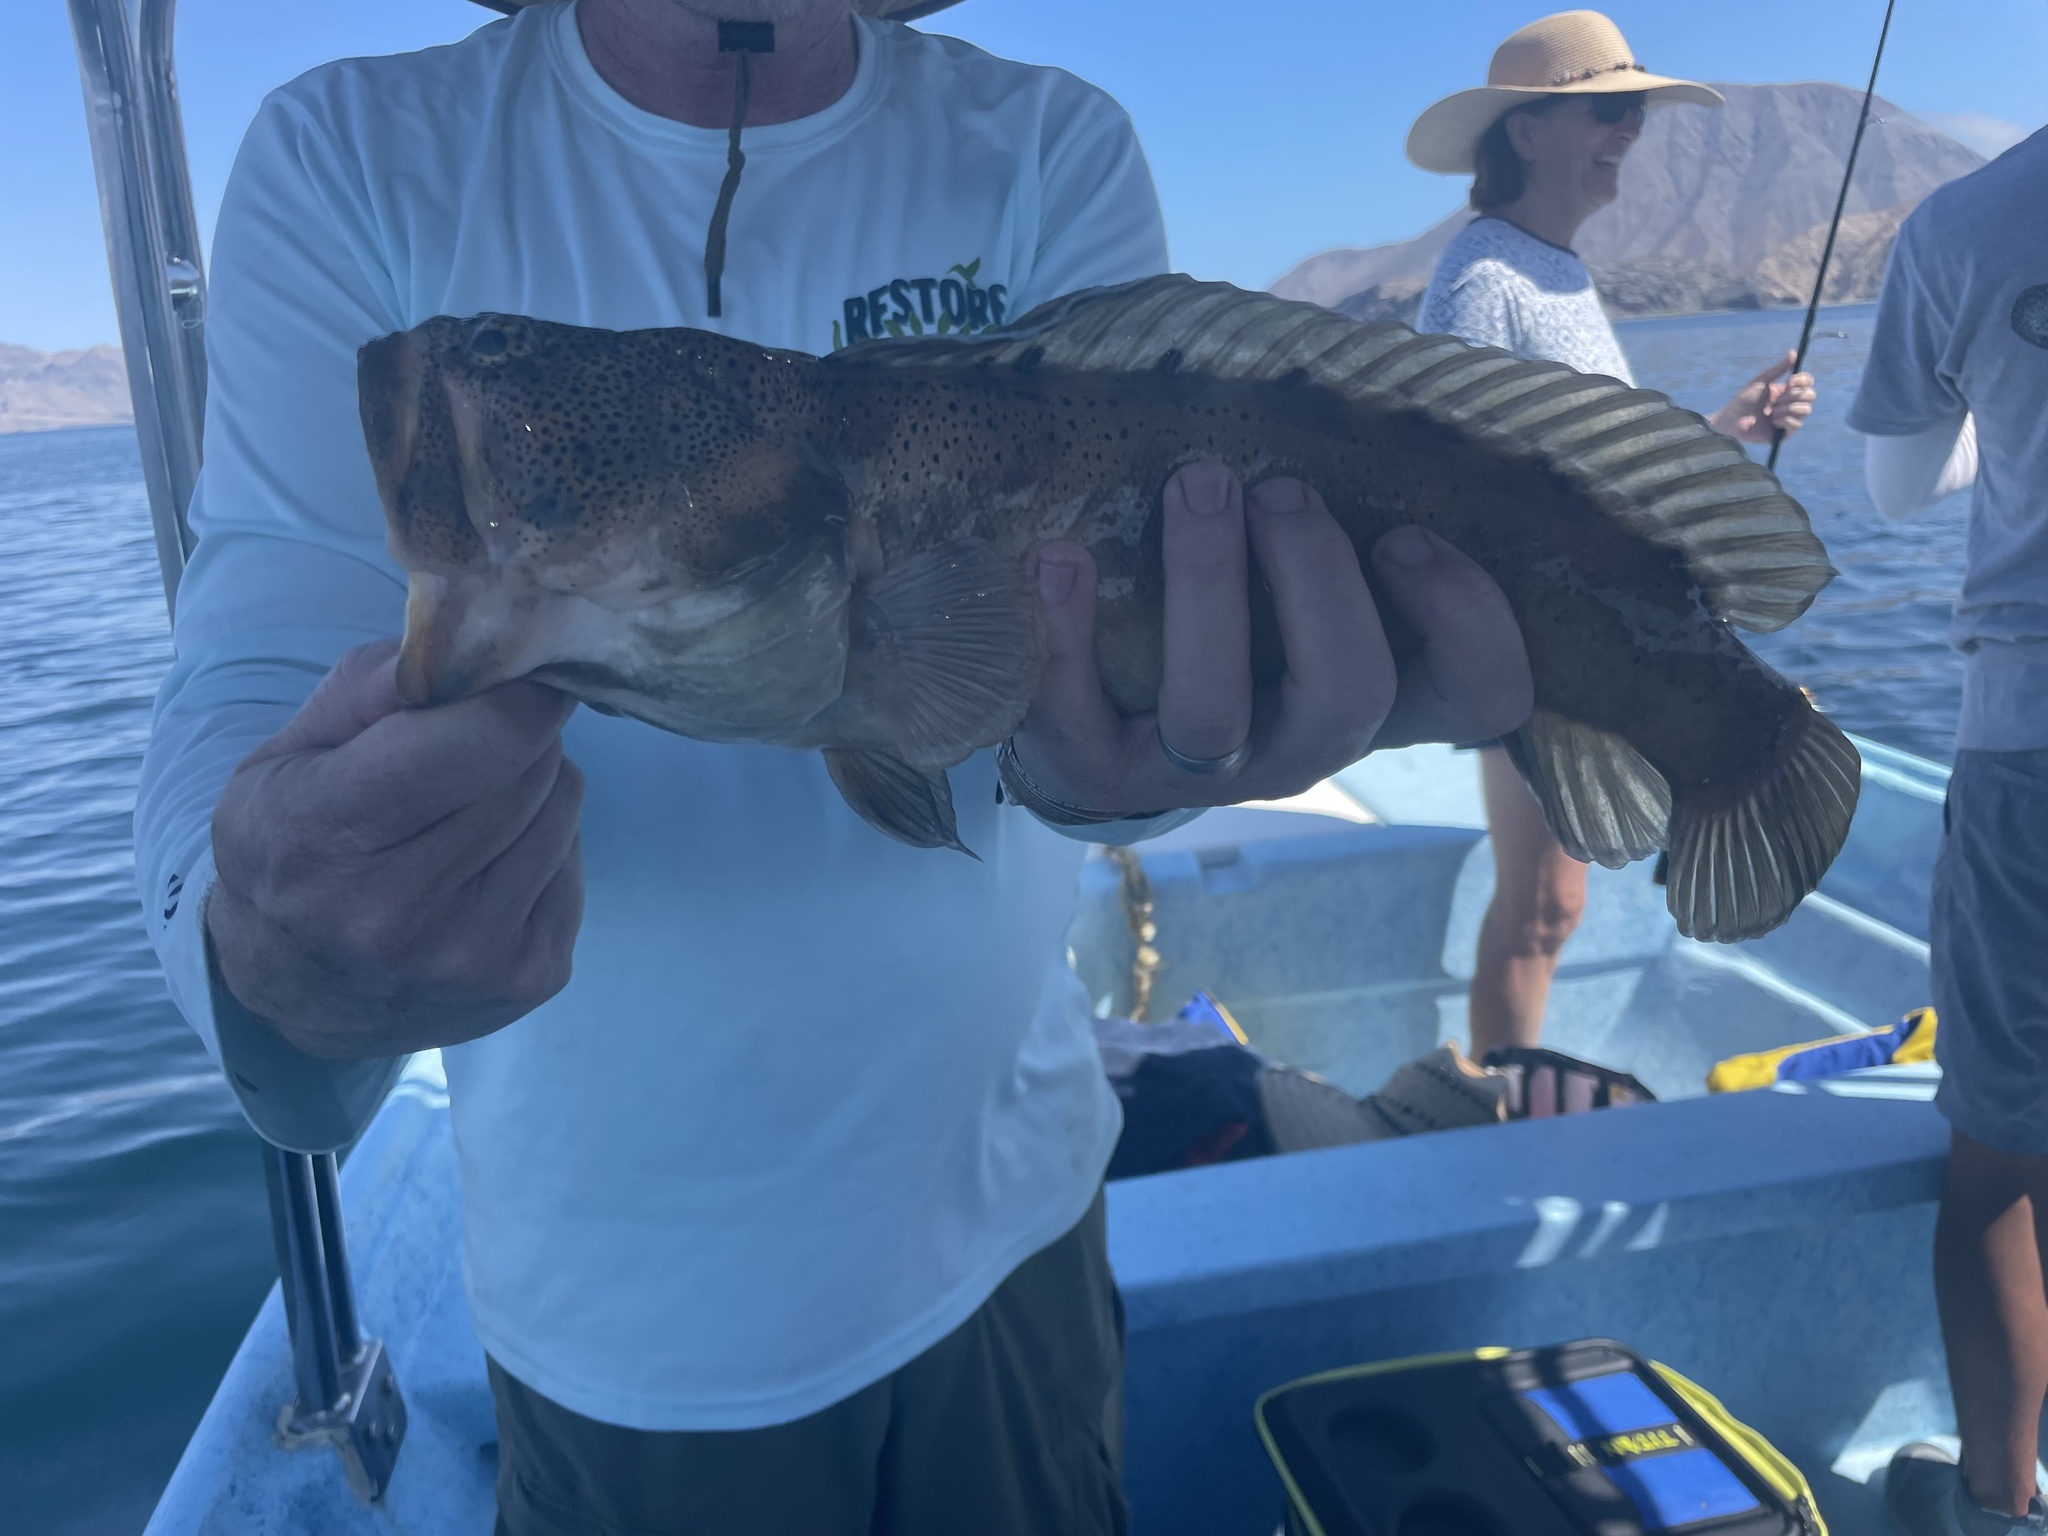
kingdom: Animalia
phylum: Chordata
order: Perciformes
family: Opistognathidae
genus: Opistognathus
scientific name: Opistognathus rhomaleus
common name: Giant jawfish
